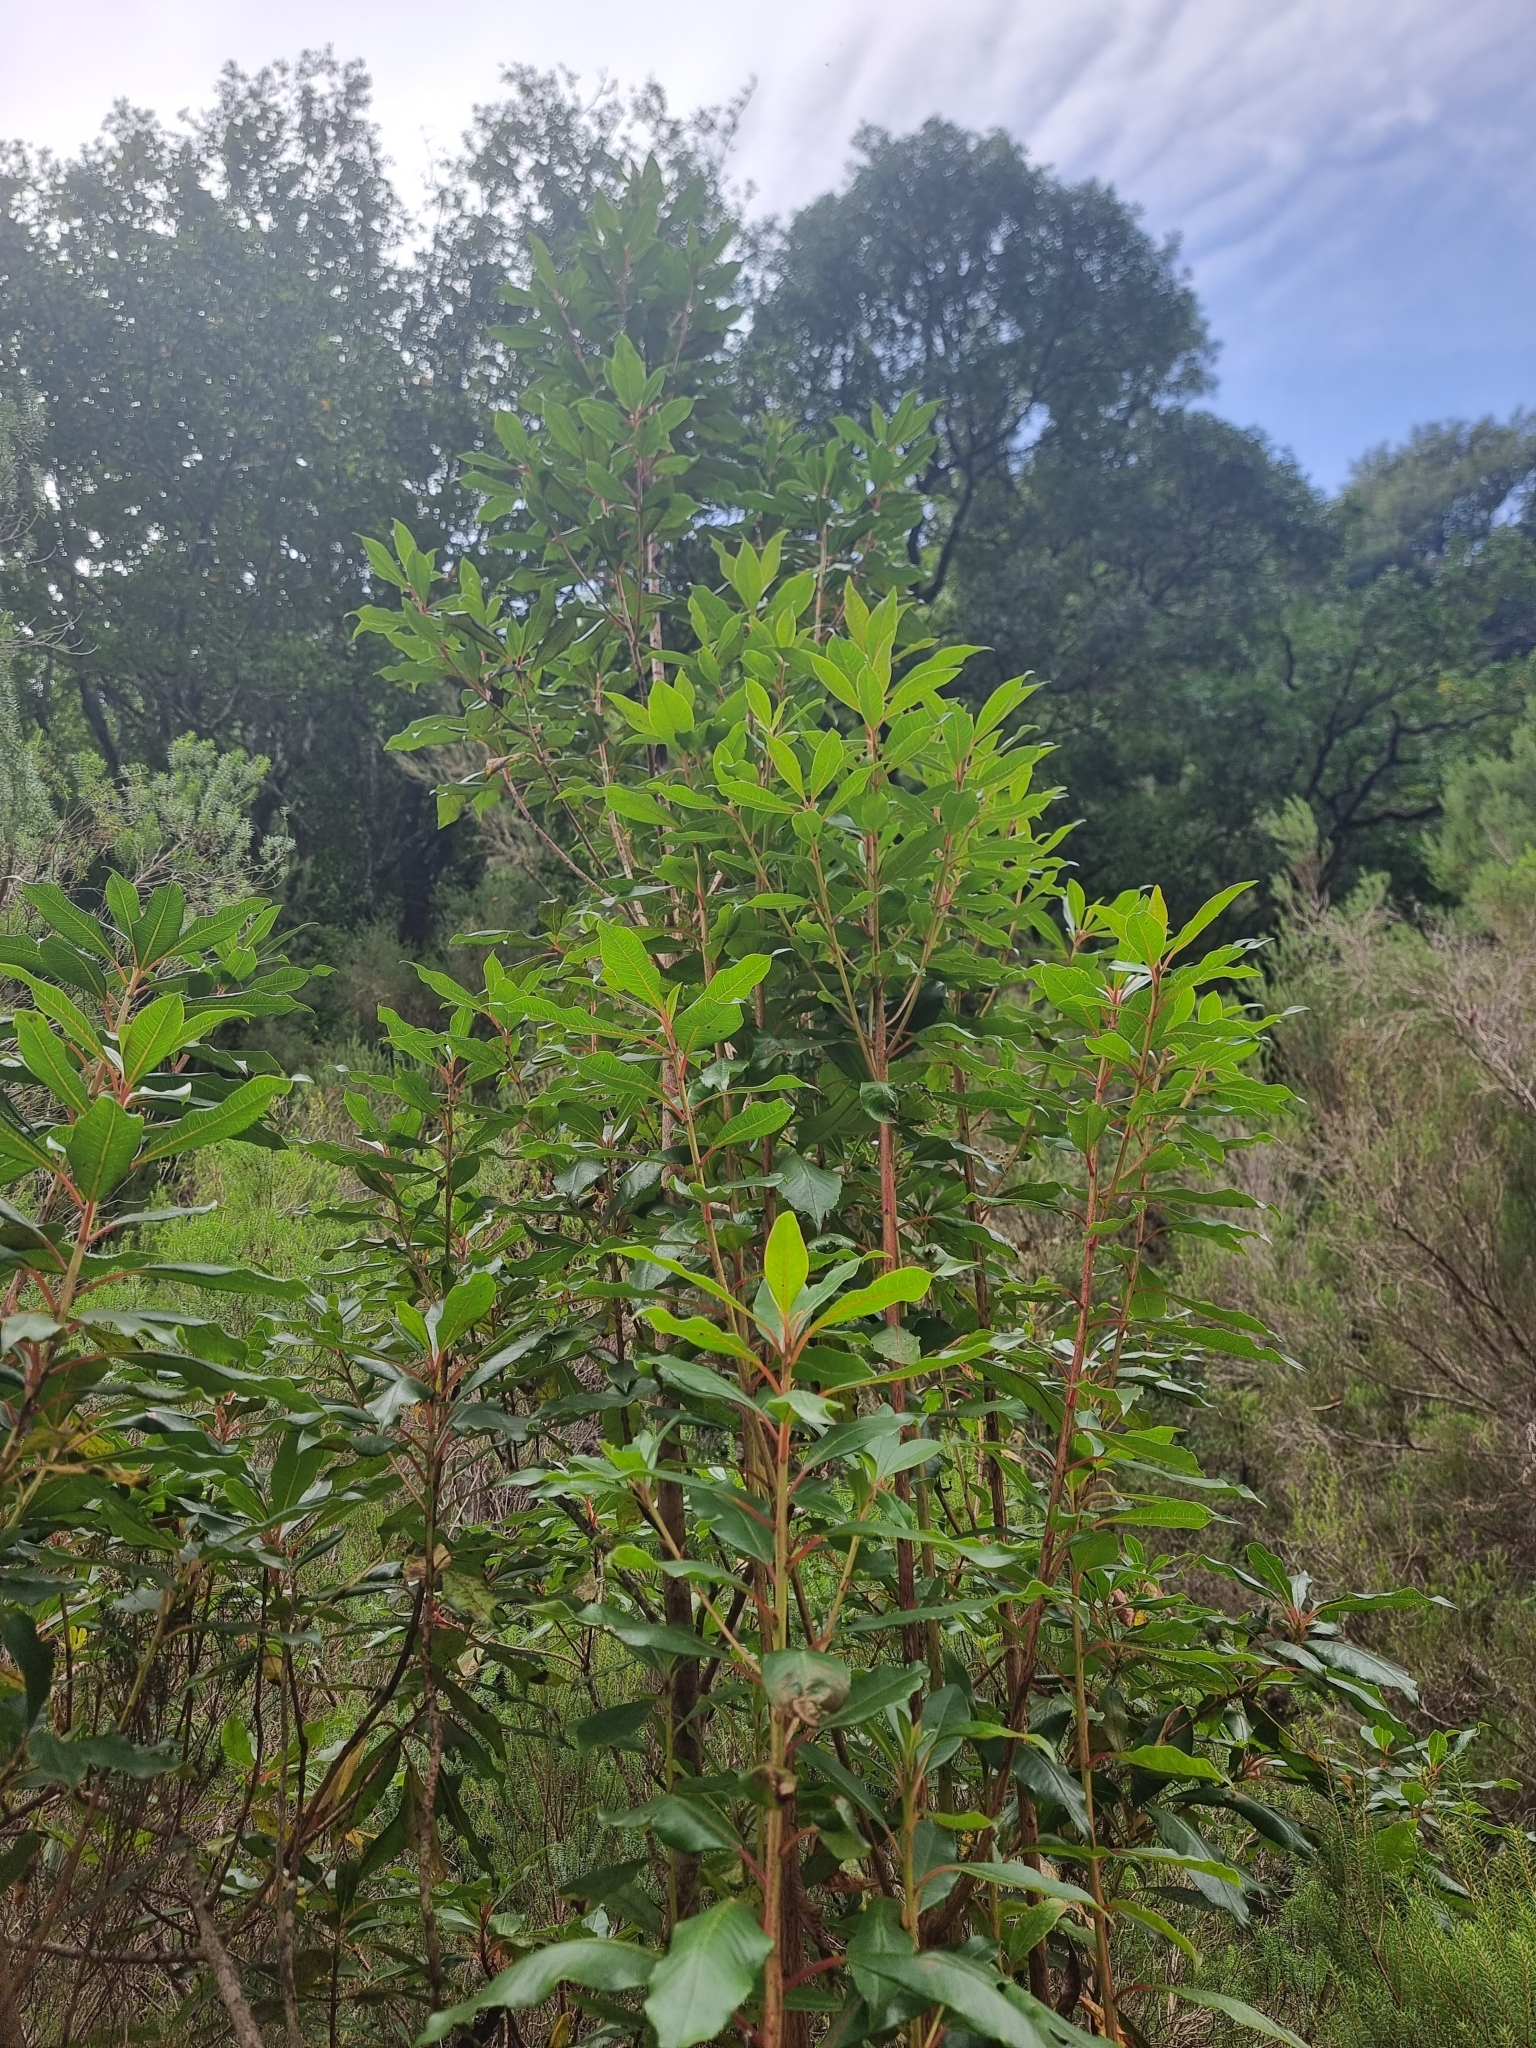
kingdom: Plantae
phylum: Tracheophyta
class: Magnoliopsida
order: Ericales
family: Clethraceae
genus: Clethra
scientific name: Clethra arborea
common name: Lily-of-the-valley-tree
